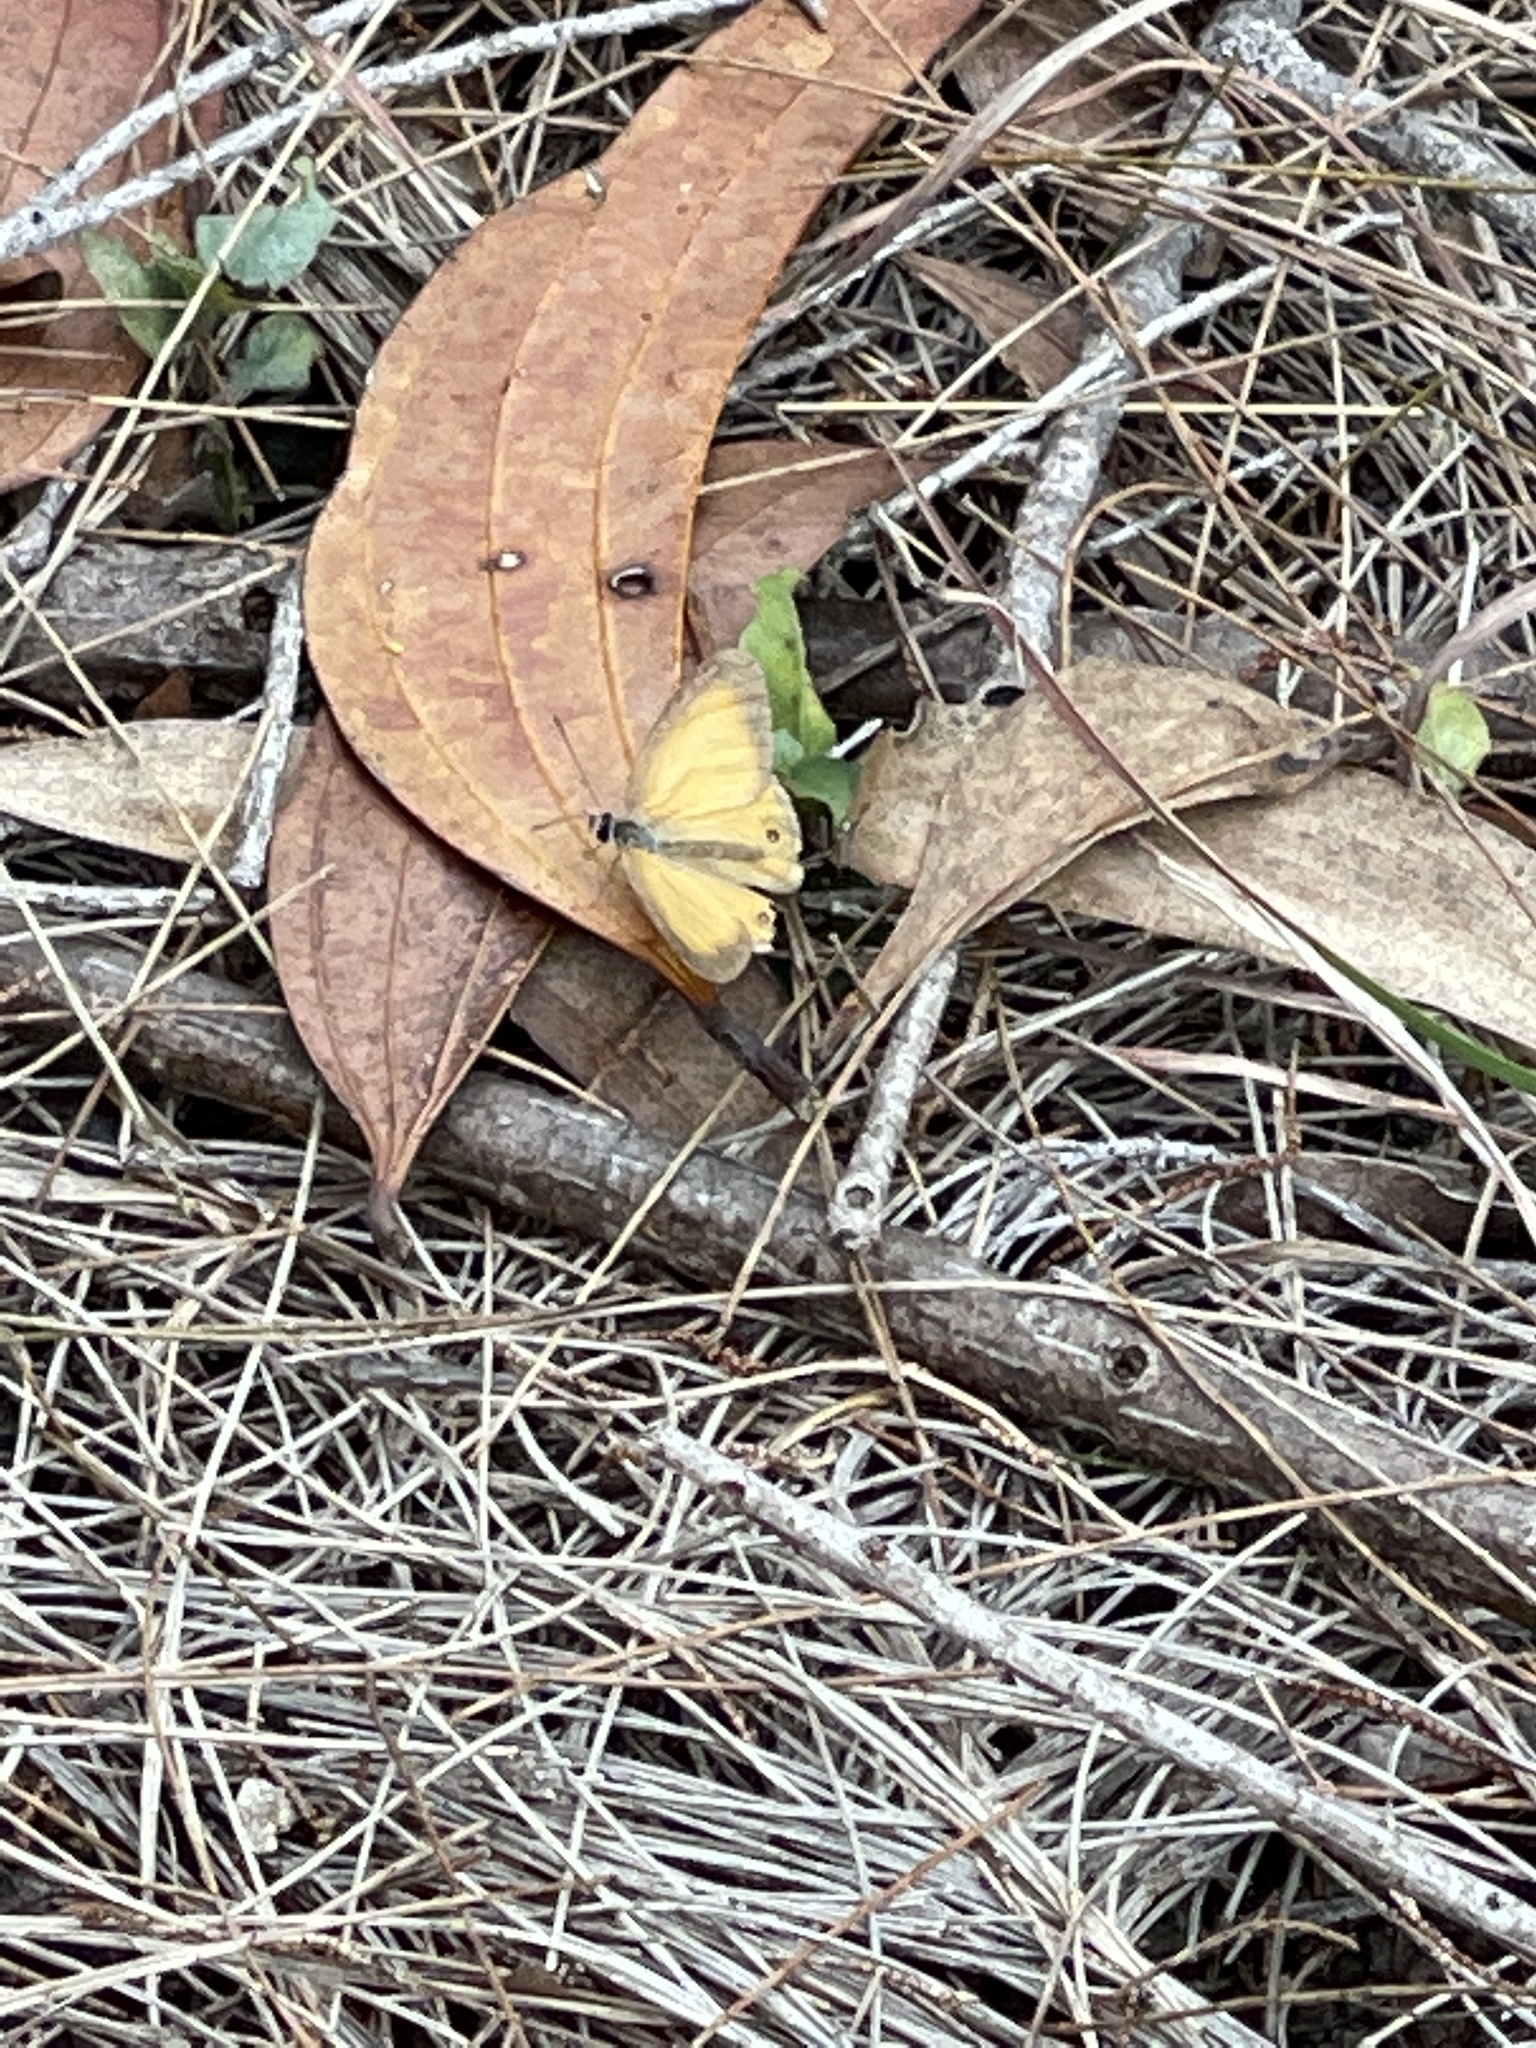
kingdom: Animalia
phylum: Arthropoda
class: Insecta
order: Lepidoptera
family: Nymphalidae
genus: Hypocysta
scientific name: Hypocysta adiante
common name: Orange ringlet
